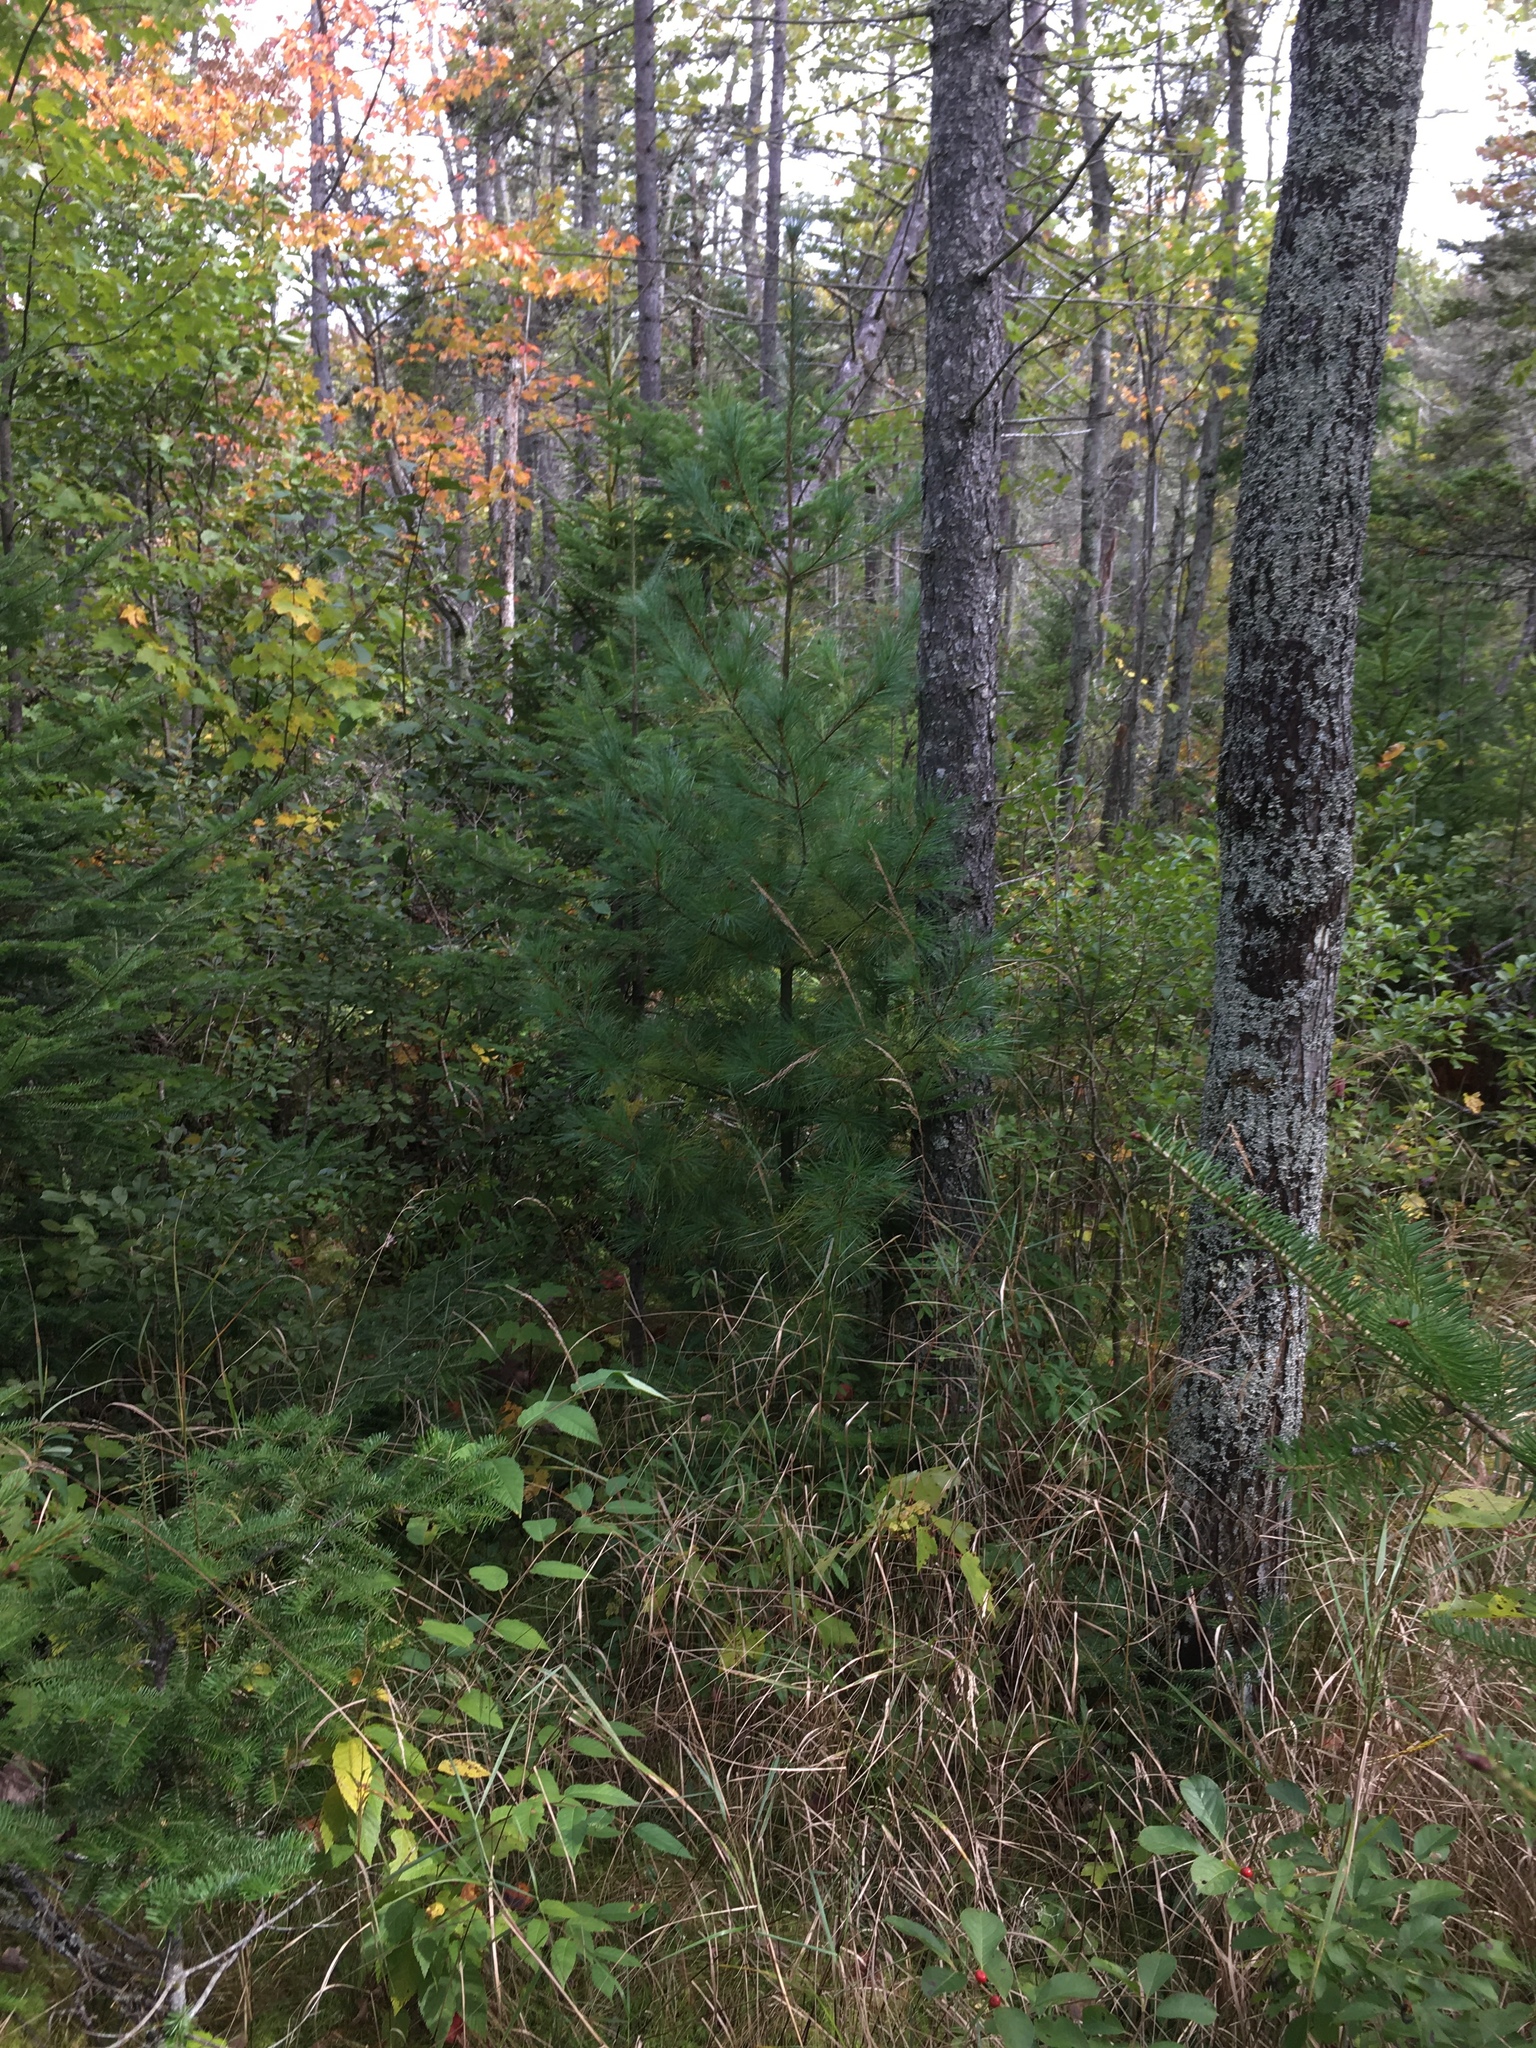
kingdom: Plantae
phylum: Tracheophyta
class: Pinopsida
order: Pinales
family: Pinaceae
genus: Pinus
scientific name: Pinus strobus
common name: Weymouth pine
